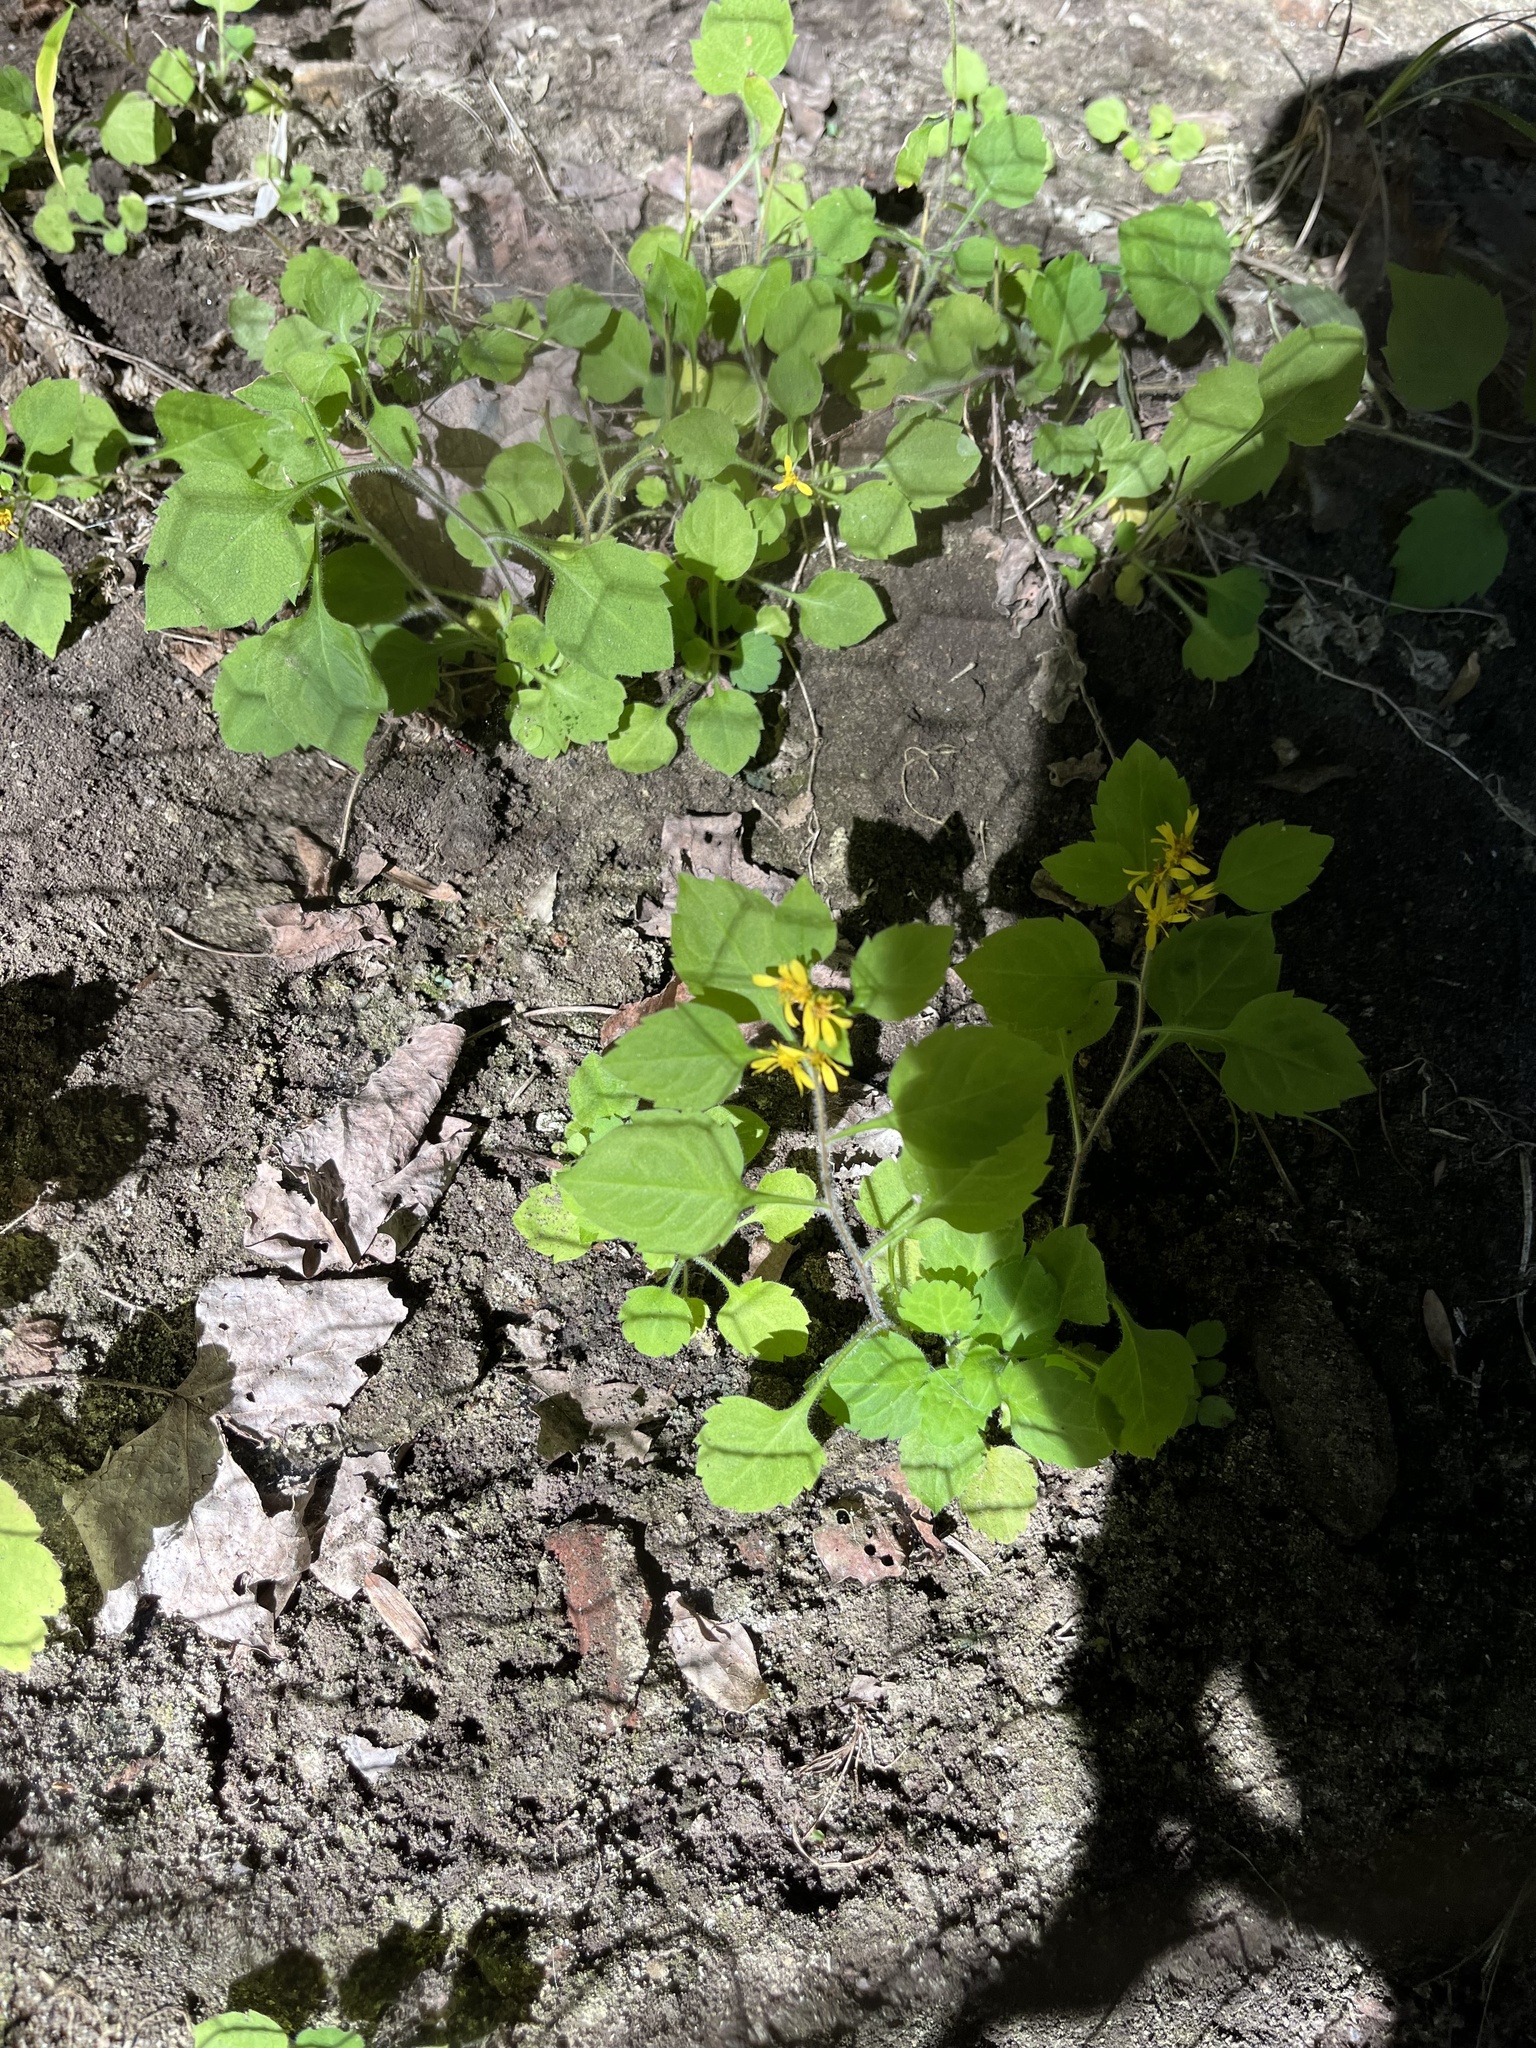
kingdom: Plantae
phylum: Tracheophyta
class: Magnoliopsida
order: Asterales
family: Asteraceae
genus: Solidago
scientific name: Solidago albopilosa
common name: White-hair goldenrod
